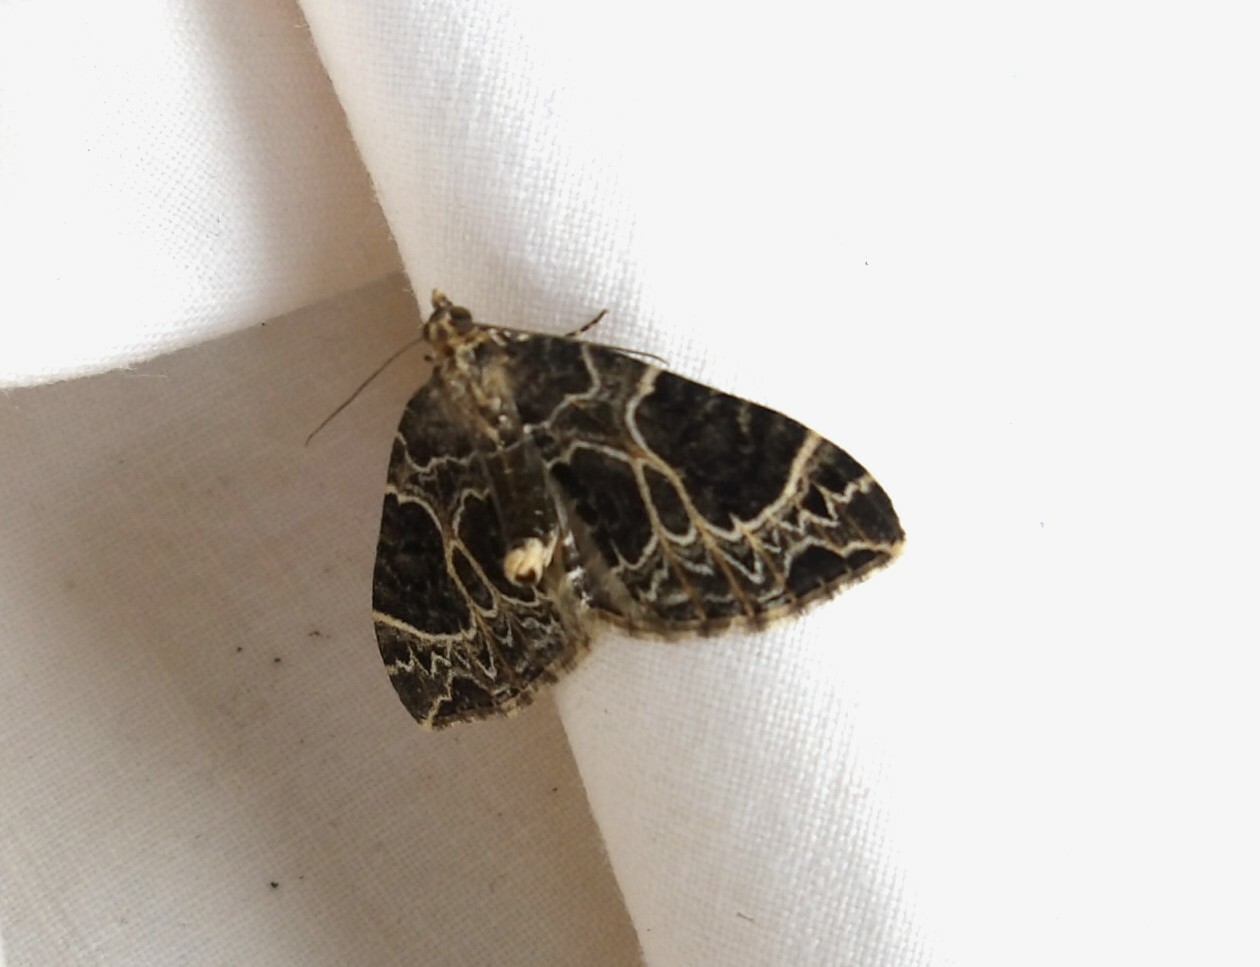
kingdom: Animalia
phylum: Arthropoda
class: Insecta
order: Lepidoptera
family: Geometridae
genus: Ecliptopera
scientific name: Ecliptopera silaceata
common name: Small phoenix
